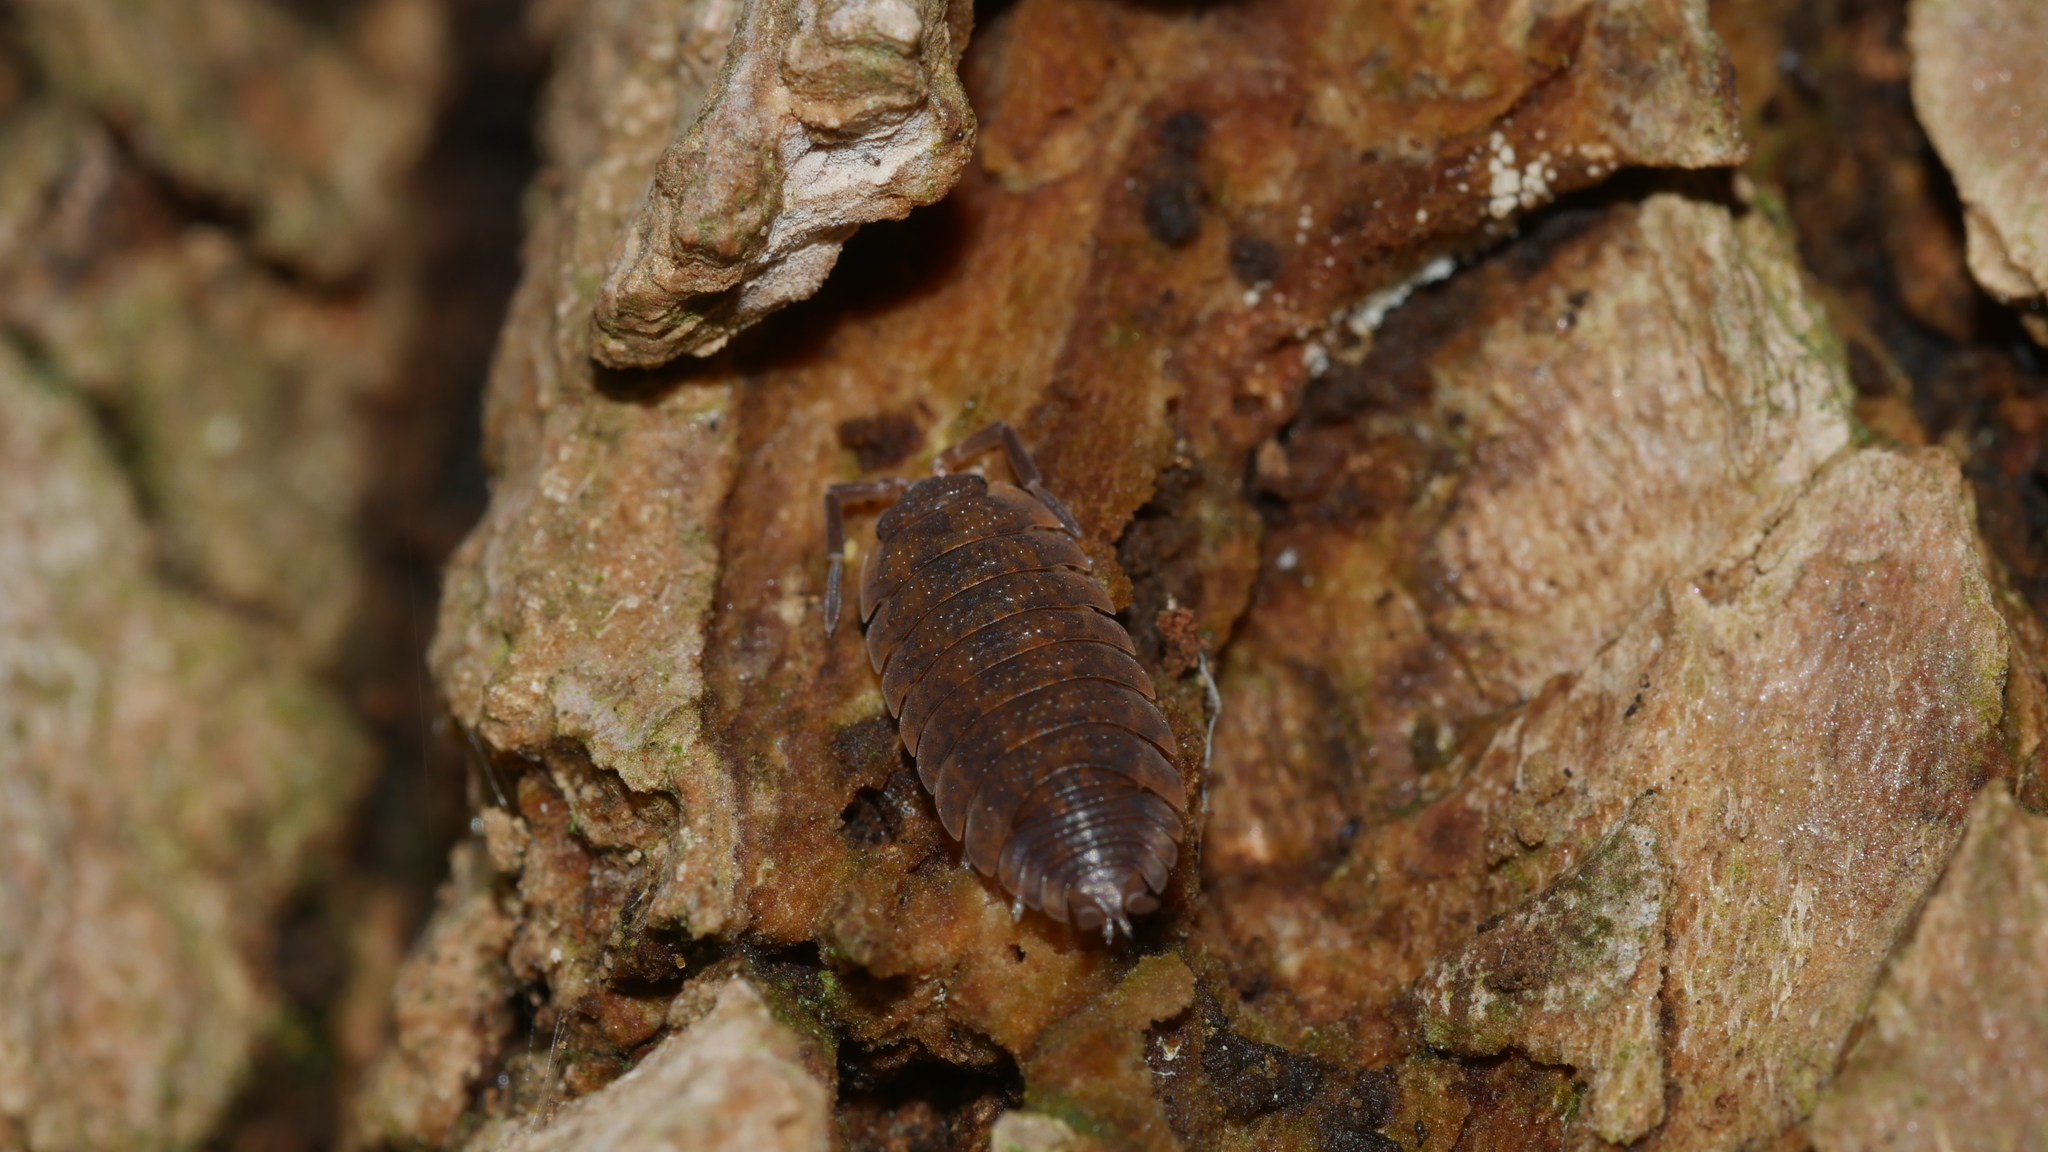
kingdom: Animalia
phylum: Arthropoda
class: Malacostraca
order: Isopoda
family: Porcellionidae
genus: Porcellio
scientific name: Porcellio scaber
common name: Common rough woodlouse
